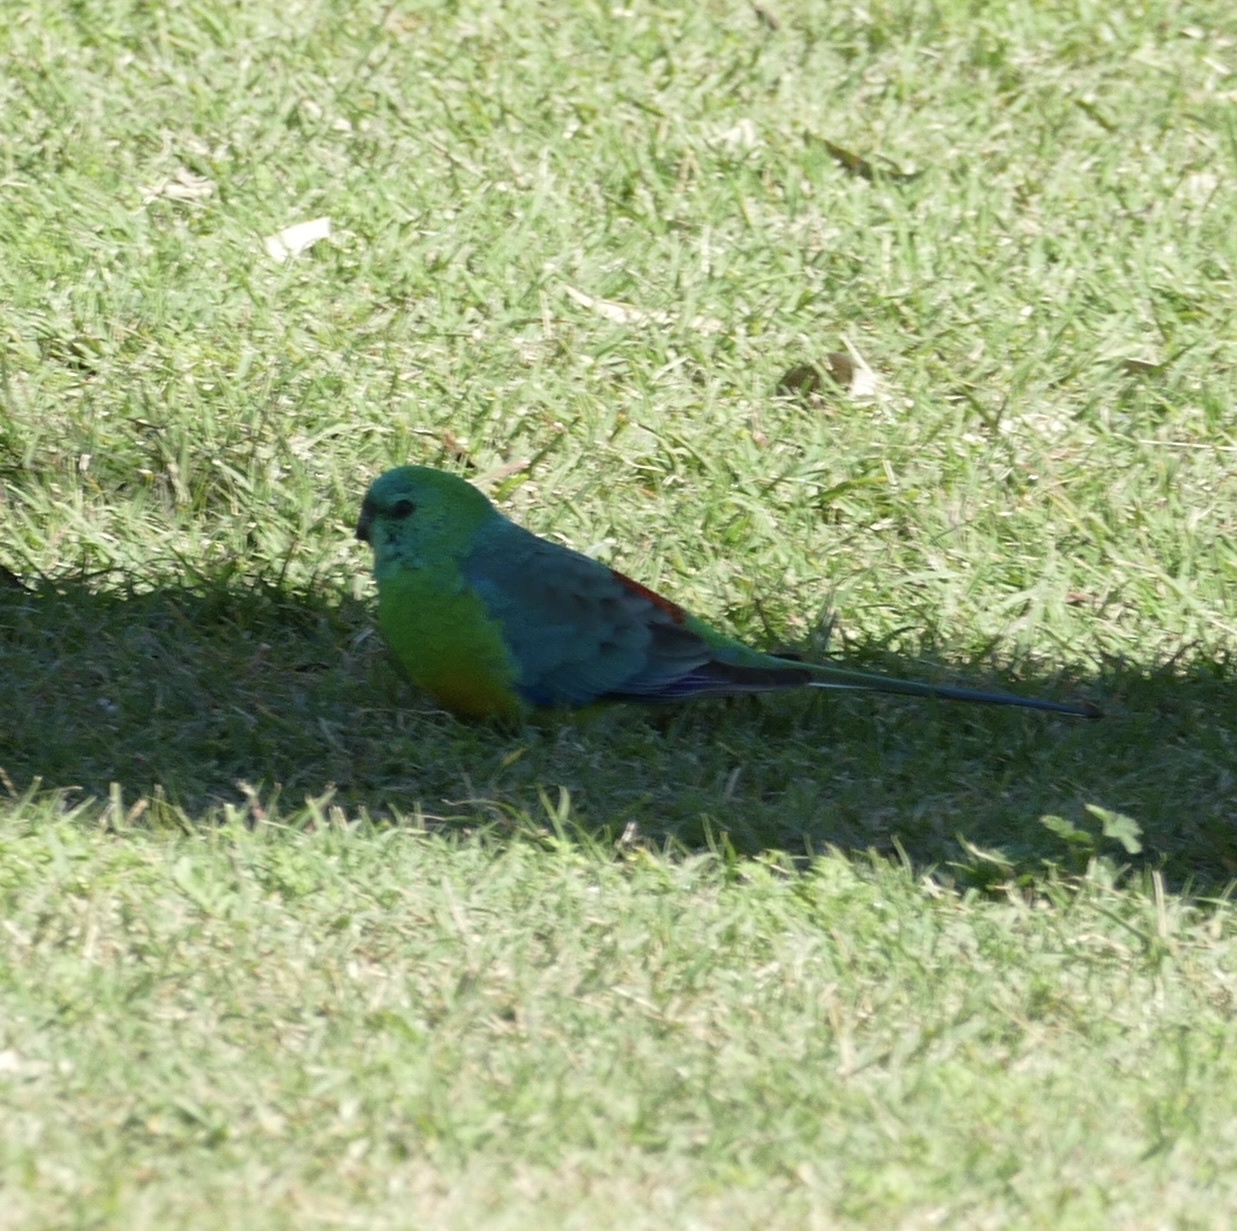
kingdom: Animalia
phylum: Chordata
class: Aves
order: Psittaciformes
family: Psittacidae
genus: Psephotus
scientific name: Psephotus haematonotus
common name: Red-rumped parrot
